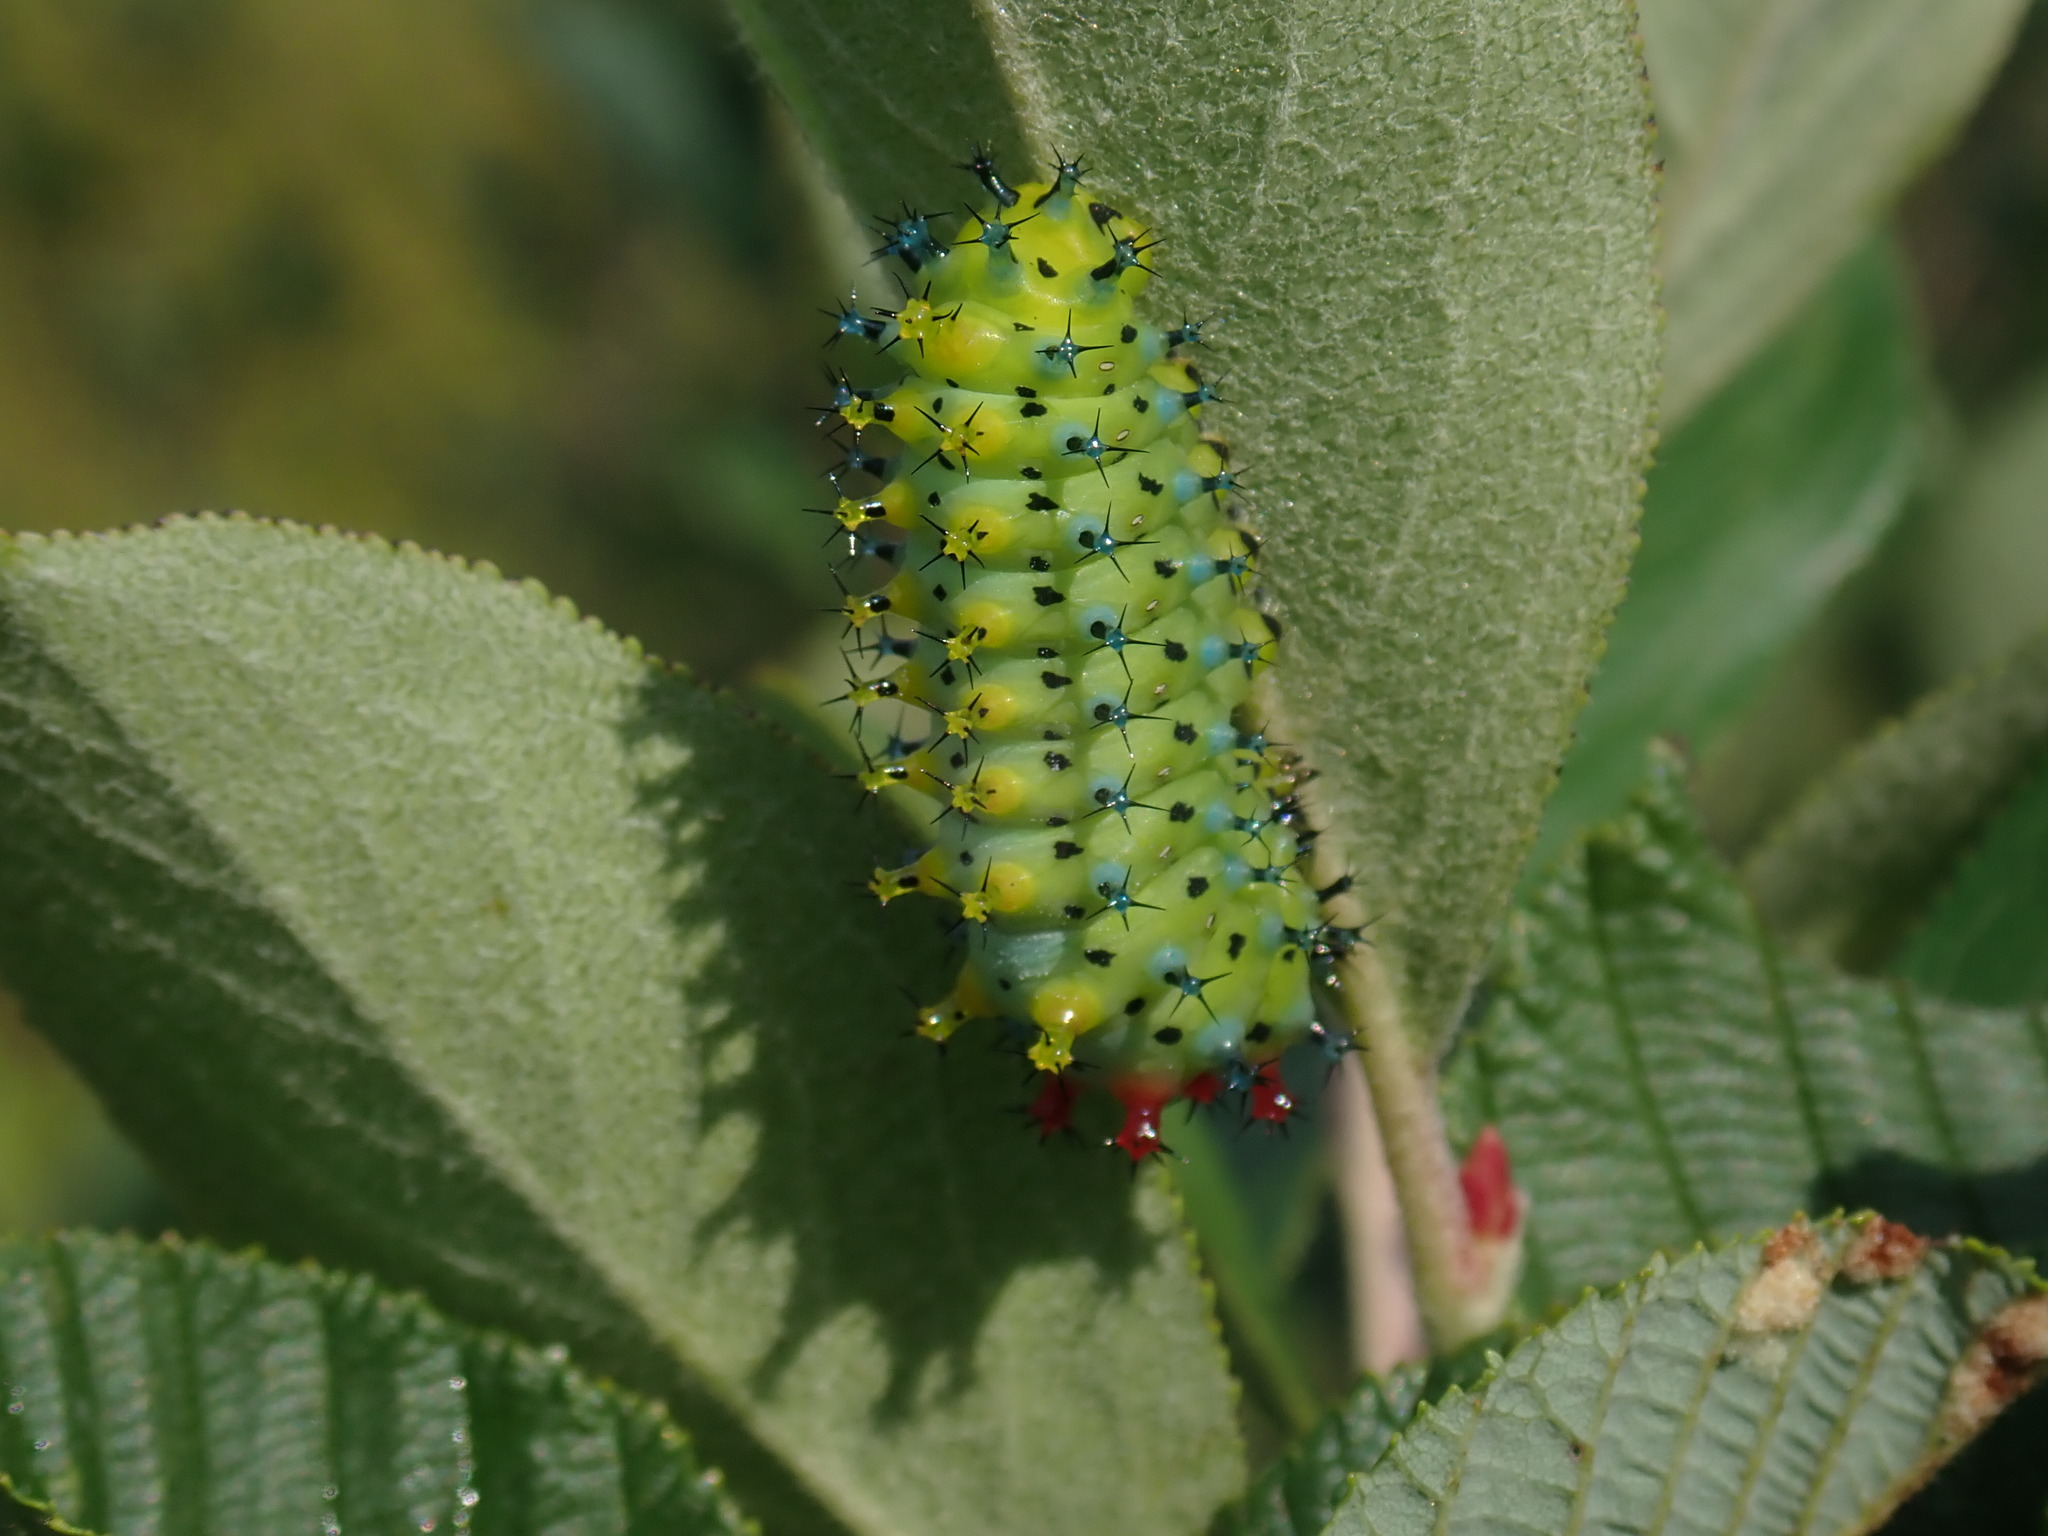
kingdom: Animalia
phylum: Arthropoda
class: Insecta
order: Lepidoptera
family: Saturniidae
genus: Hyalophora
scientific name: Hyalophora cecropia
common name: Cecropia silkmoth
